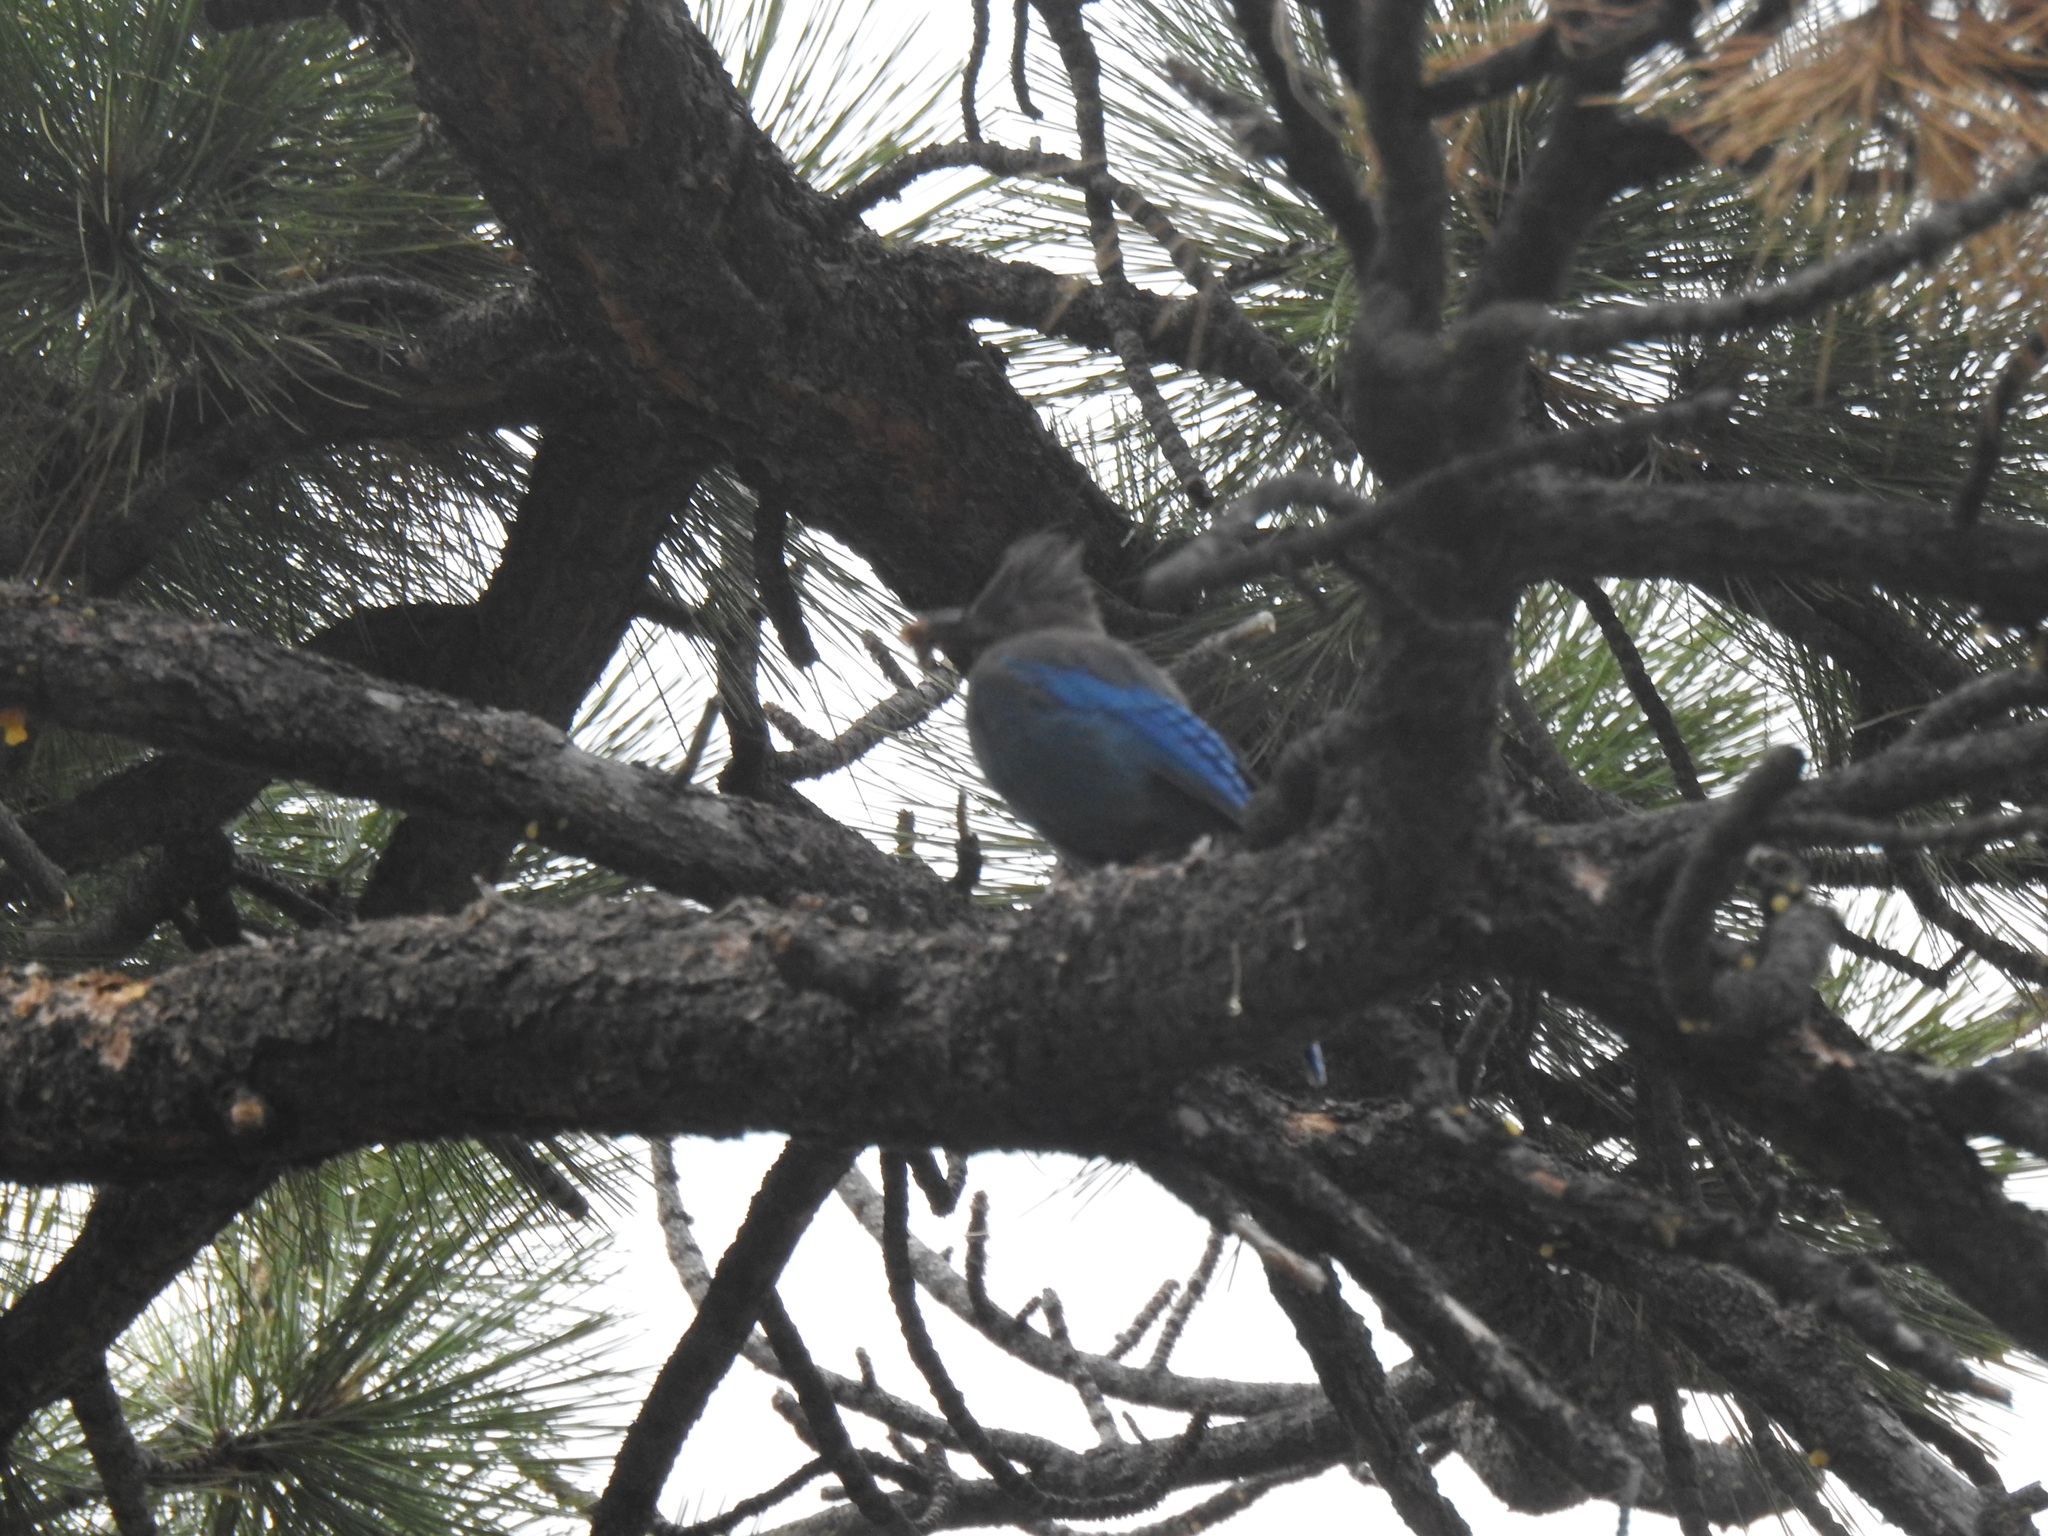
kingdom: Animalia
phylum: Chordata
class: Aves
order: Passeriformes
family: Corvidae
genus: Cyanocitta
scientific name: Cyanocitta stelleri
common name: Steller's jay
